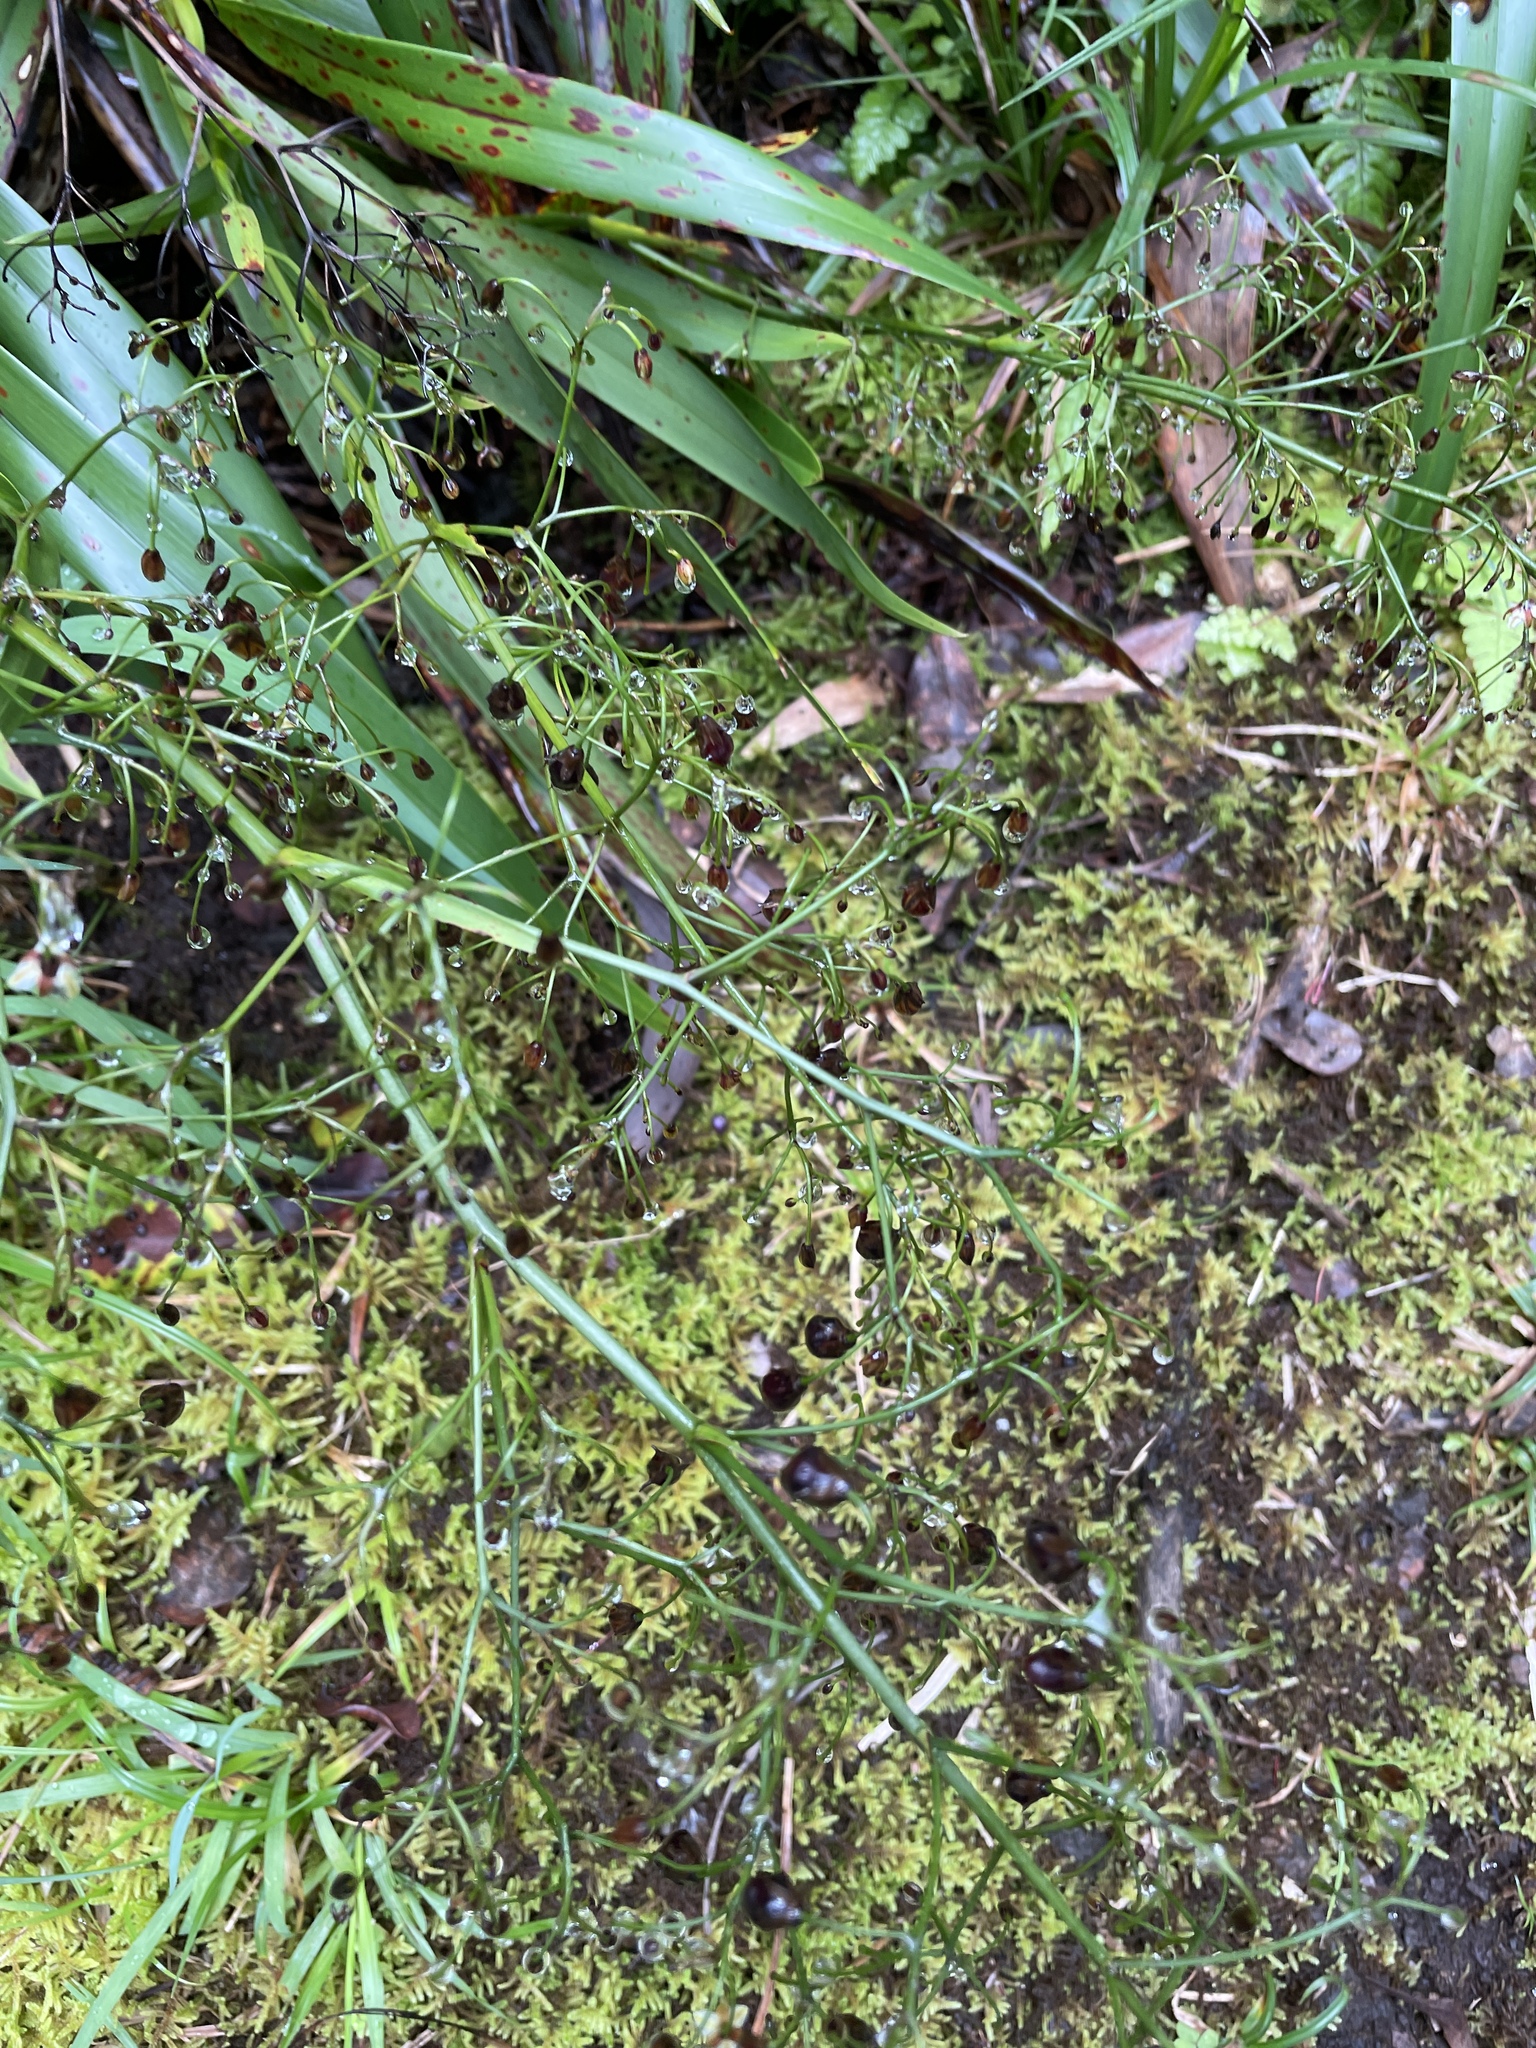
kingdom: Plantae
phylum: Tracheophyta
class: Liliopsida
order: Asparagales
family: Asphodelaceae
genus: Dianella
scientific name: Dianella sandwicensis
